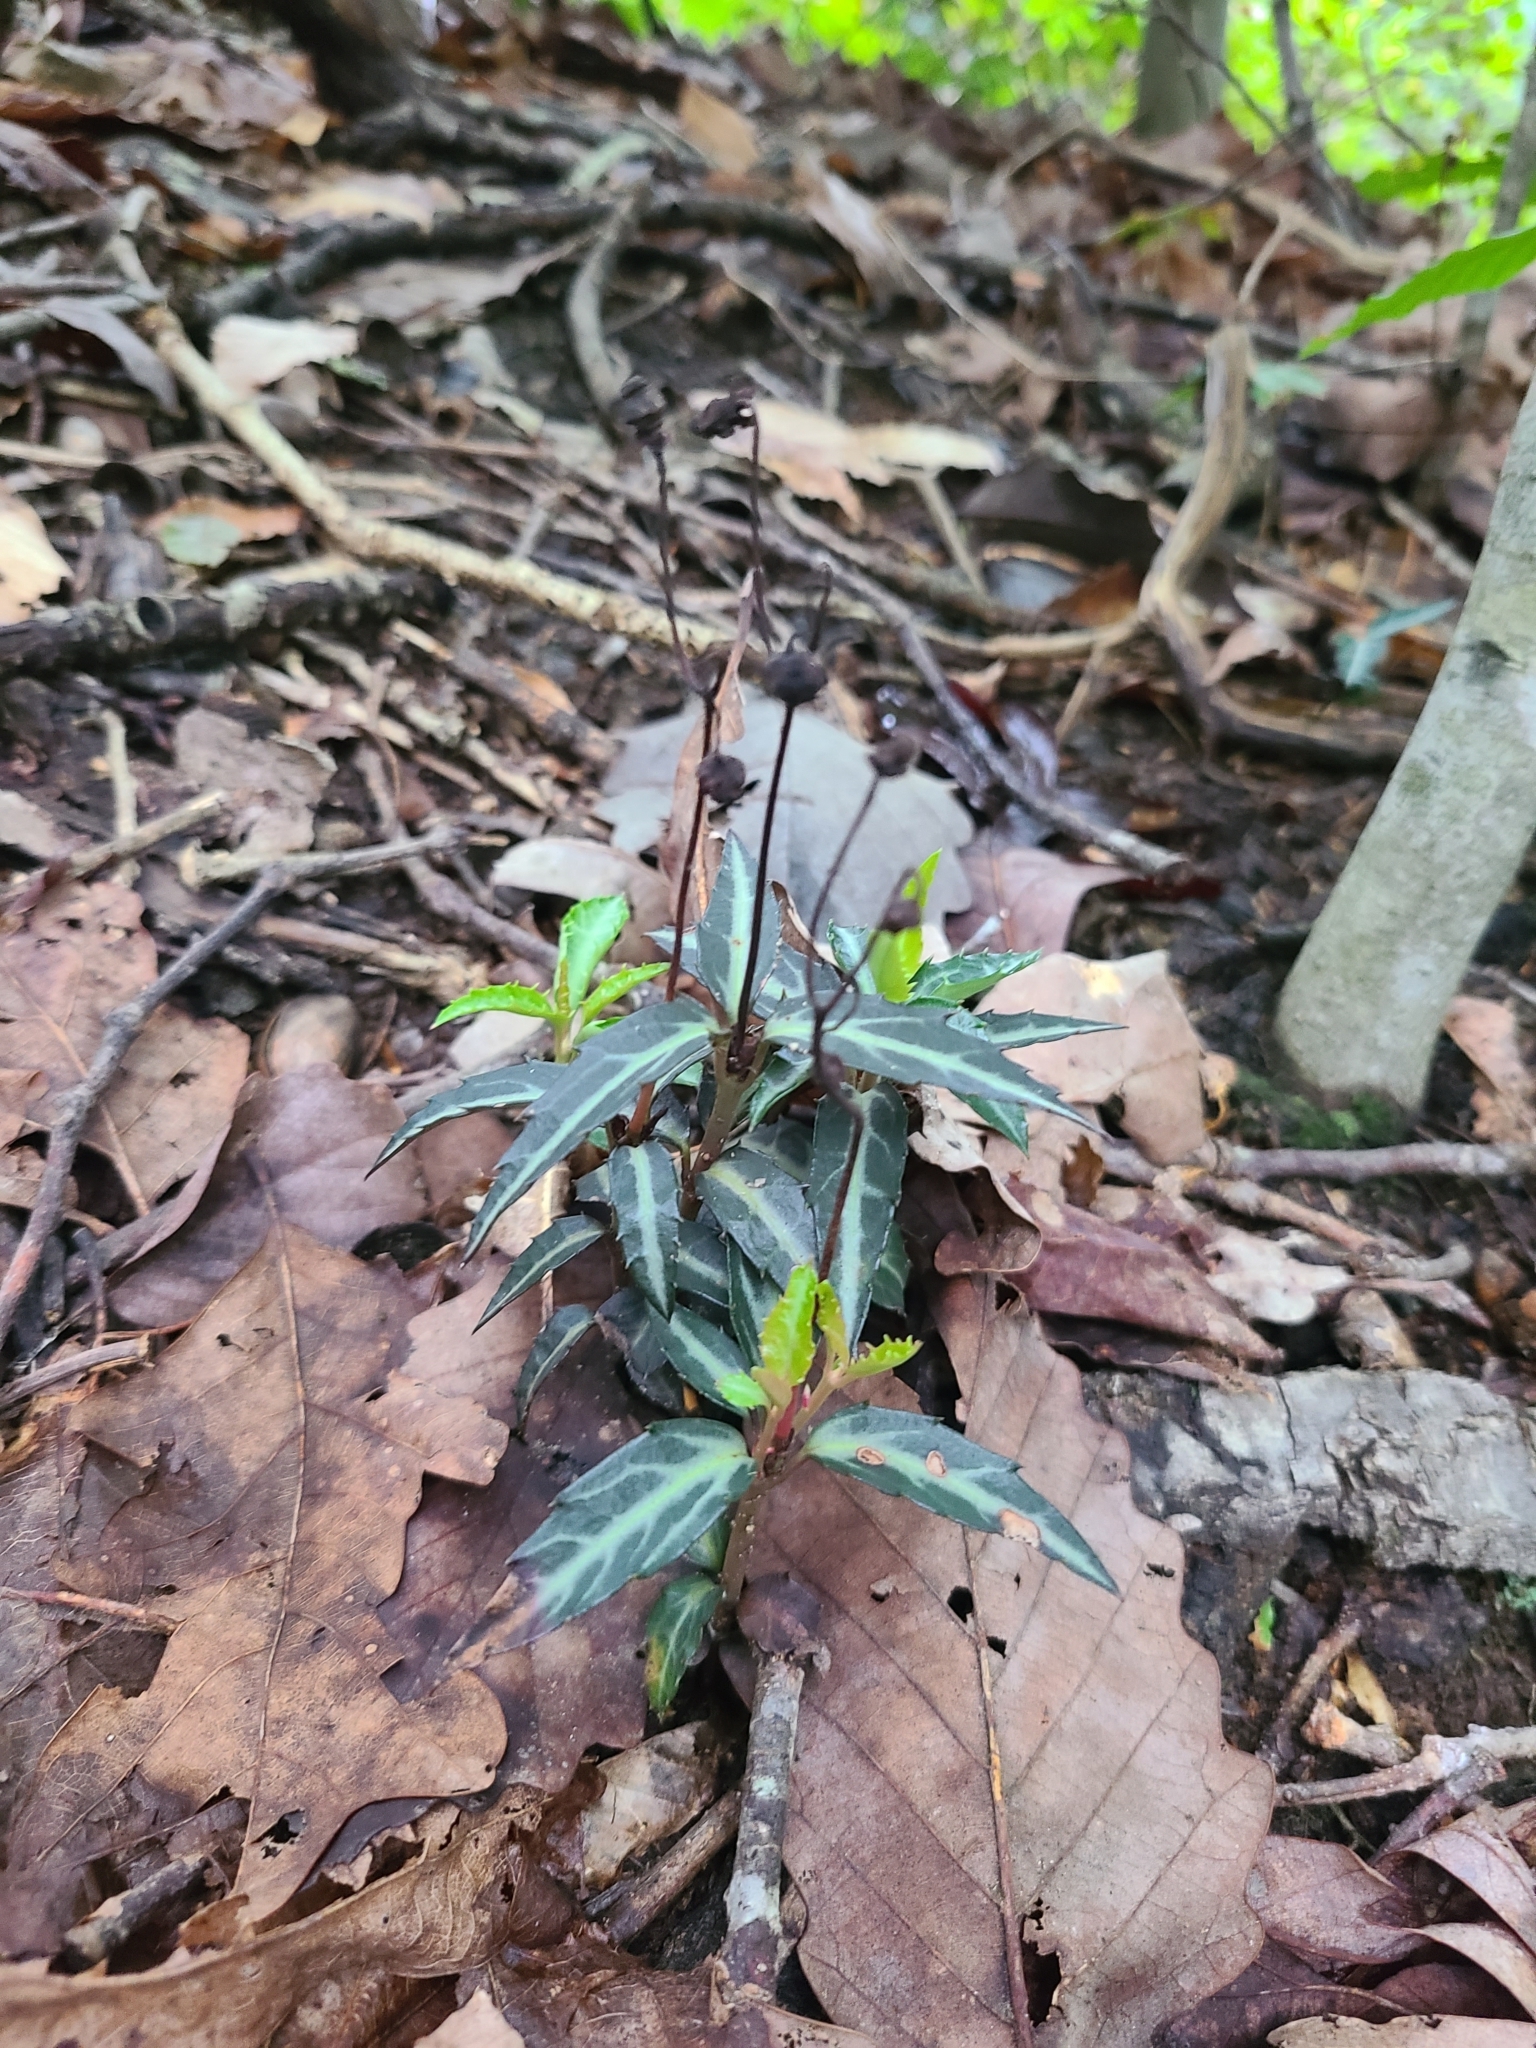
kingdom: Plantae
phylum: Tracheophyta
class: Magnoliopsida
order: Ericales
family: Ericaceae
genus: Chimaphila
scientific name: Chimaphila maculata
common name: Spotted pipsissewa
